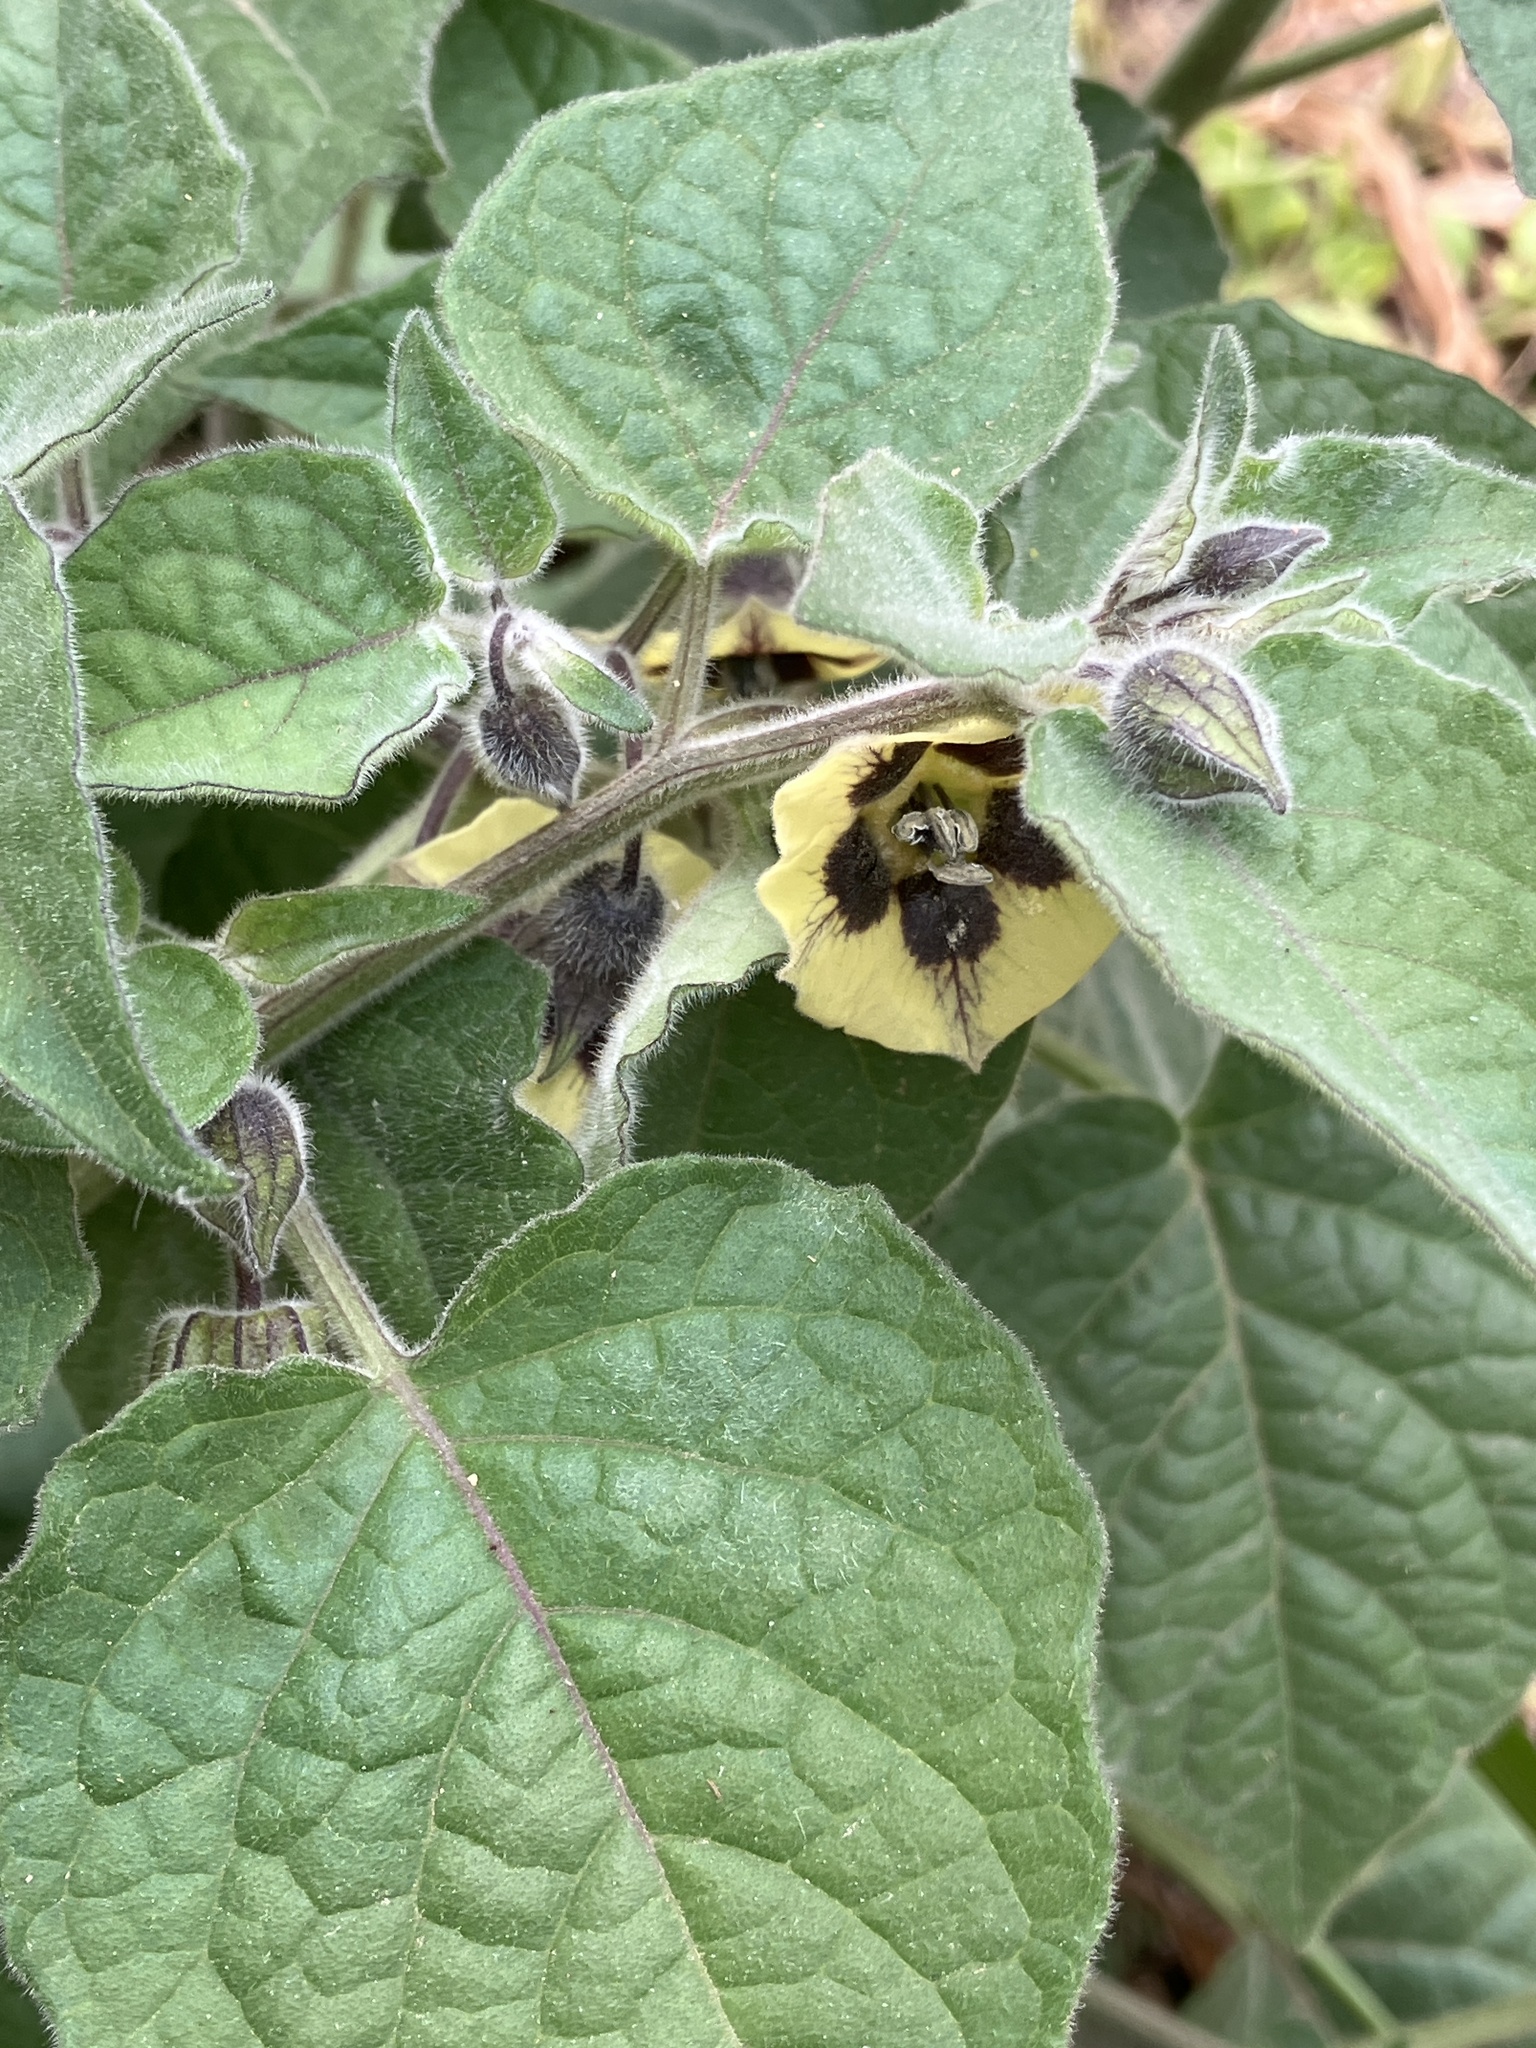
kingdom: Plantae
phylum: Tracheophyta
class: Magnoliopsida
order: Solanales
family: Solanaceae
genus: Physalis
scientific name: Physalis peruviana
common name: Cape-gooseberry
